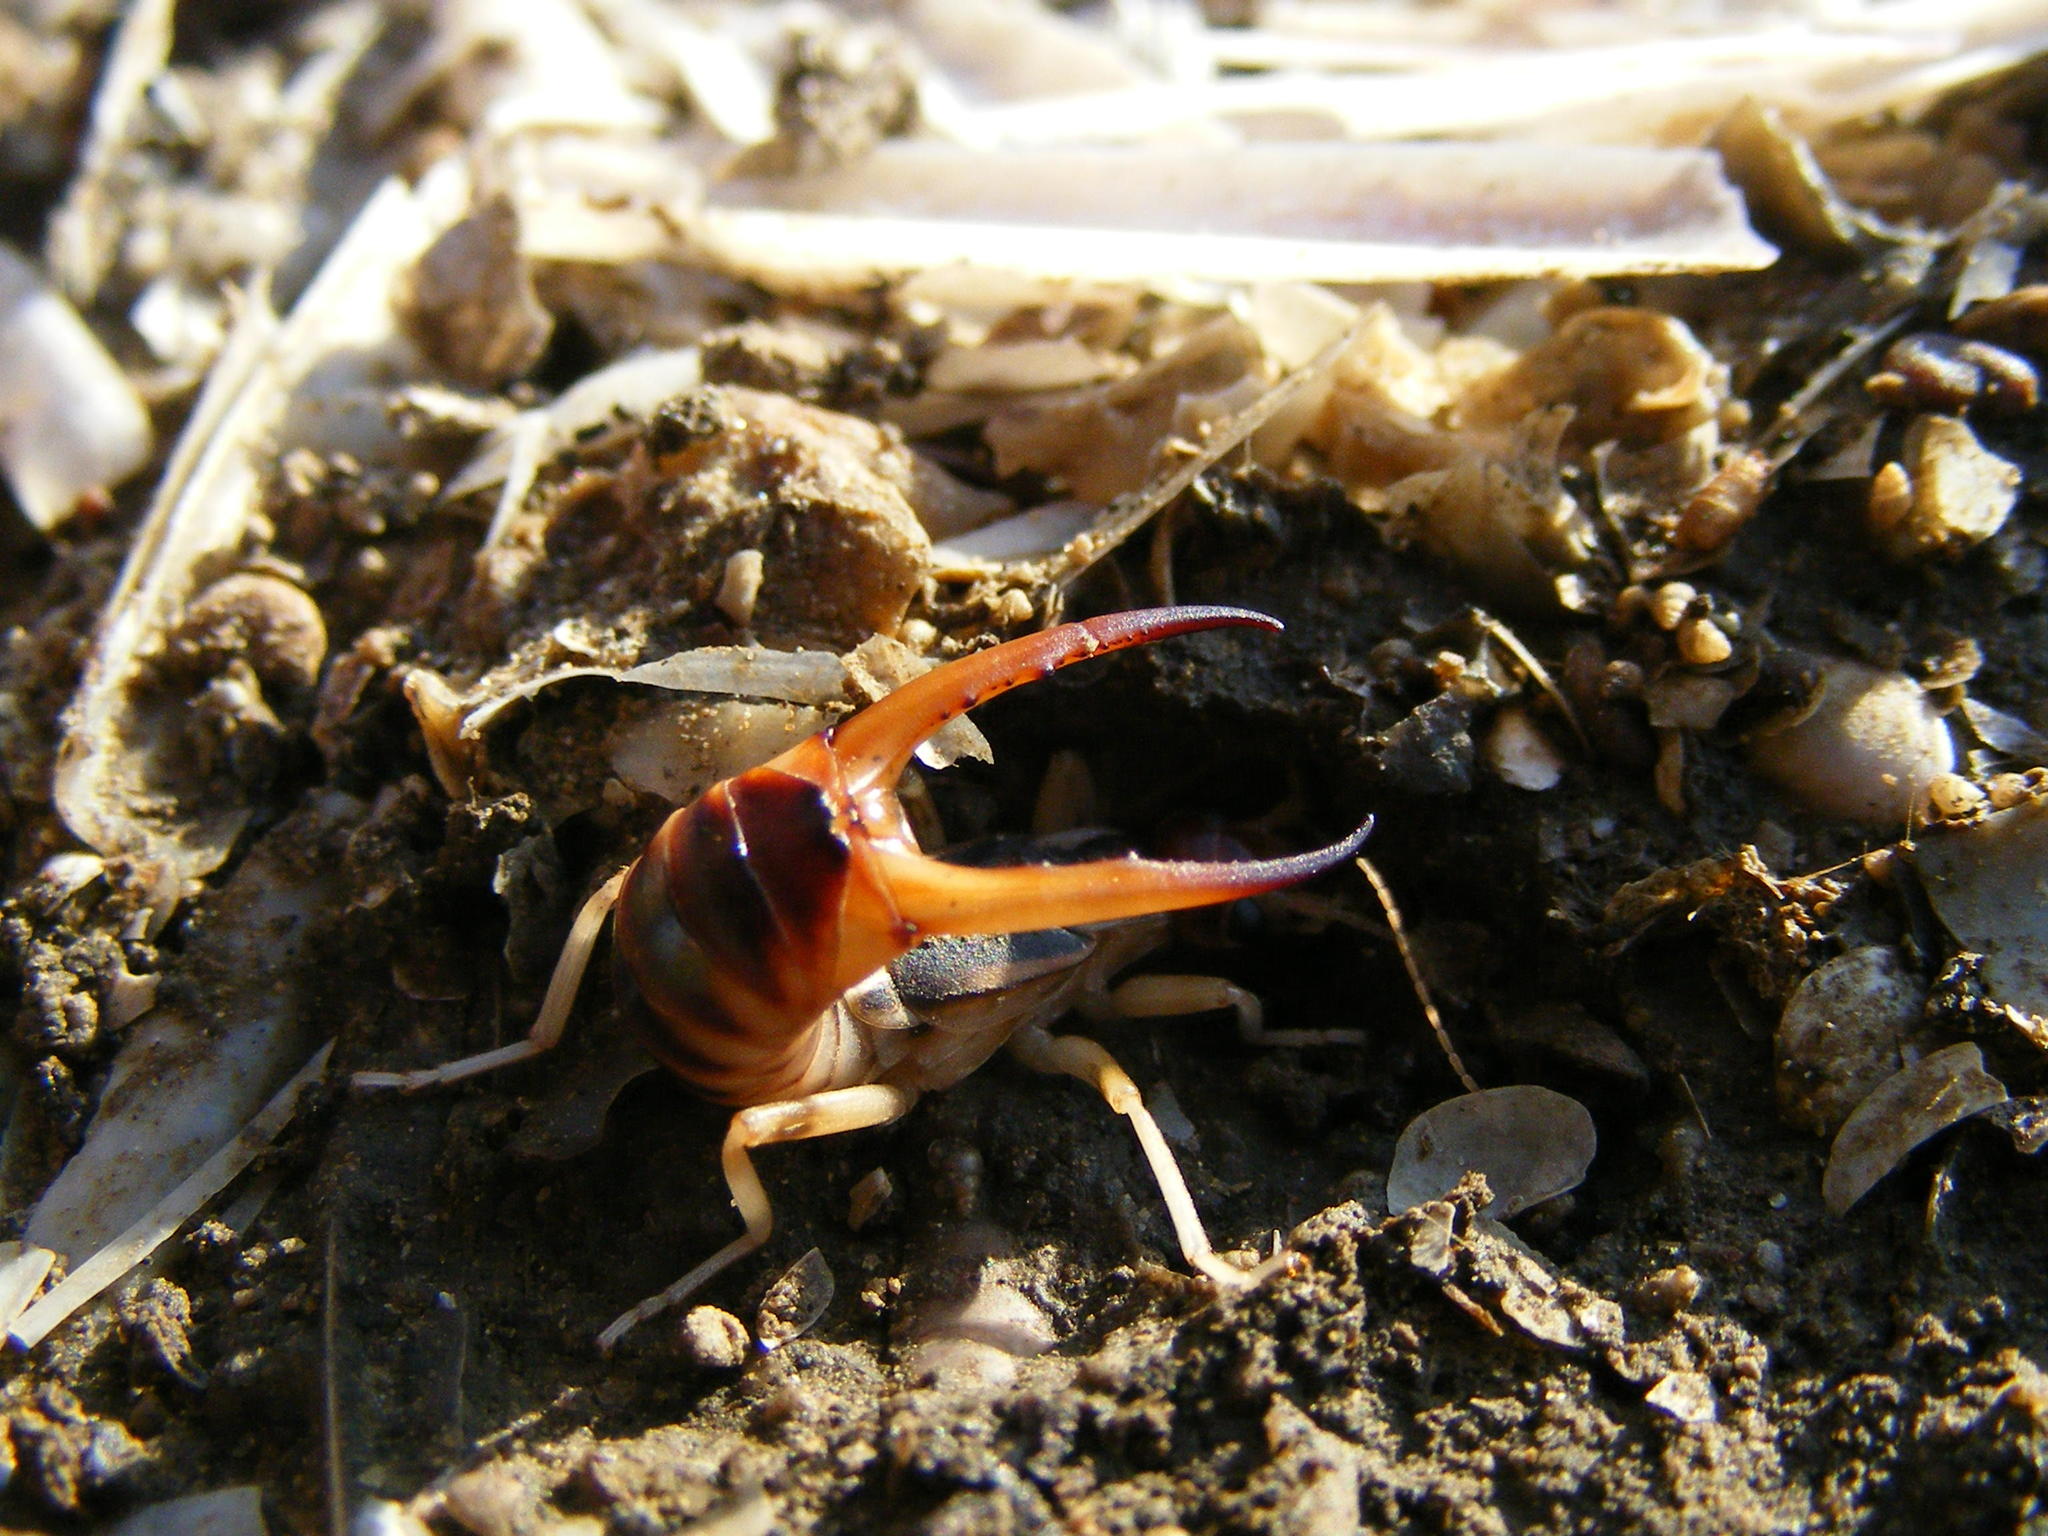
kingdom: Animalia
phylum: Arthropoda
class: Insecta
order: Dermaptera
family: Labiduridae
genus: Labidura
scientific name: Labidura riparia
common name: Striped earwig
